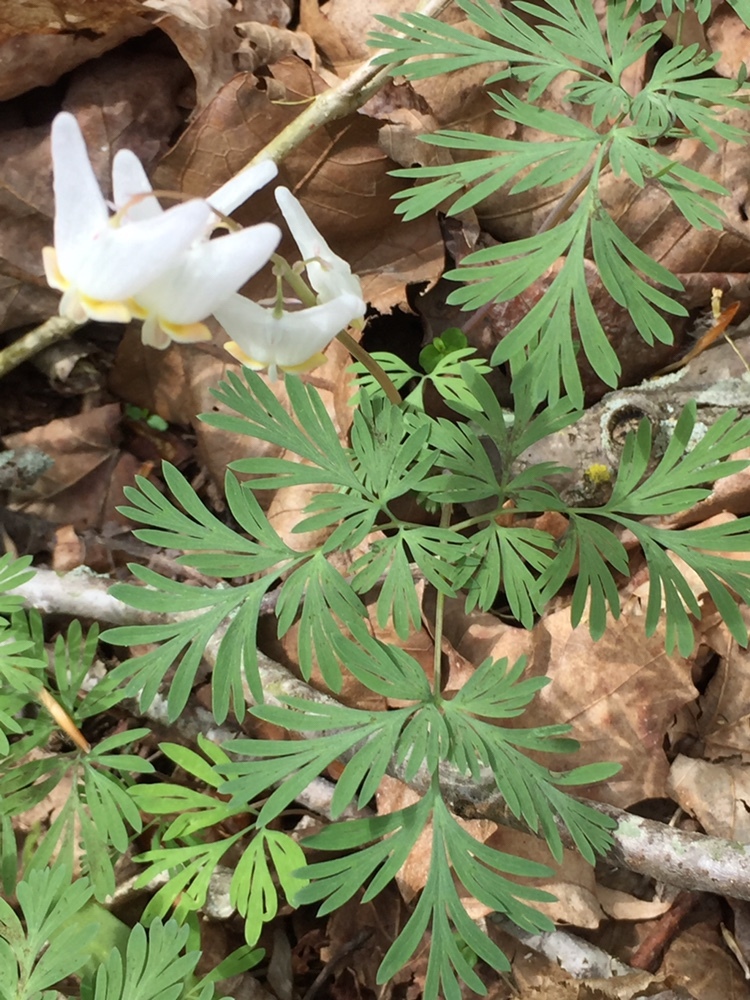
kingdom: Plantae
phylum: Tracheophyta
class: Magnoliopsida
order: Ranunculales
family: Papaveraceae
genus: Dicentra
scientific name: Dicentra cucullaria
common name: Dutchman's breeches
